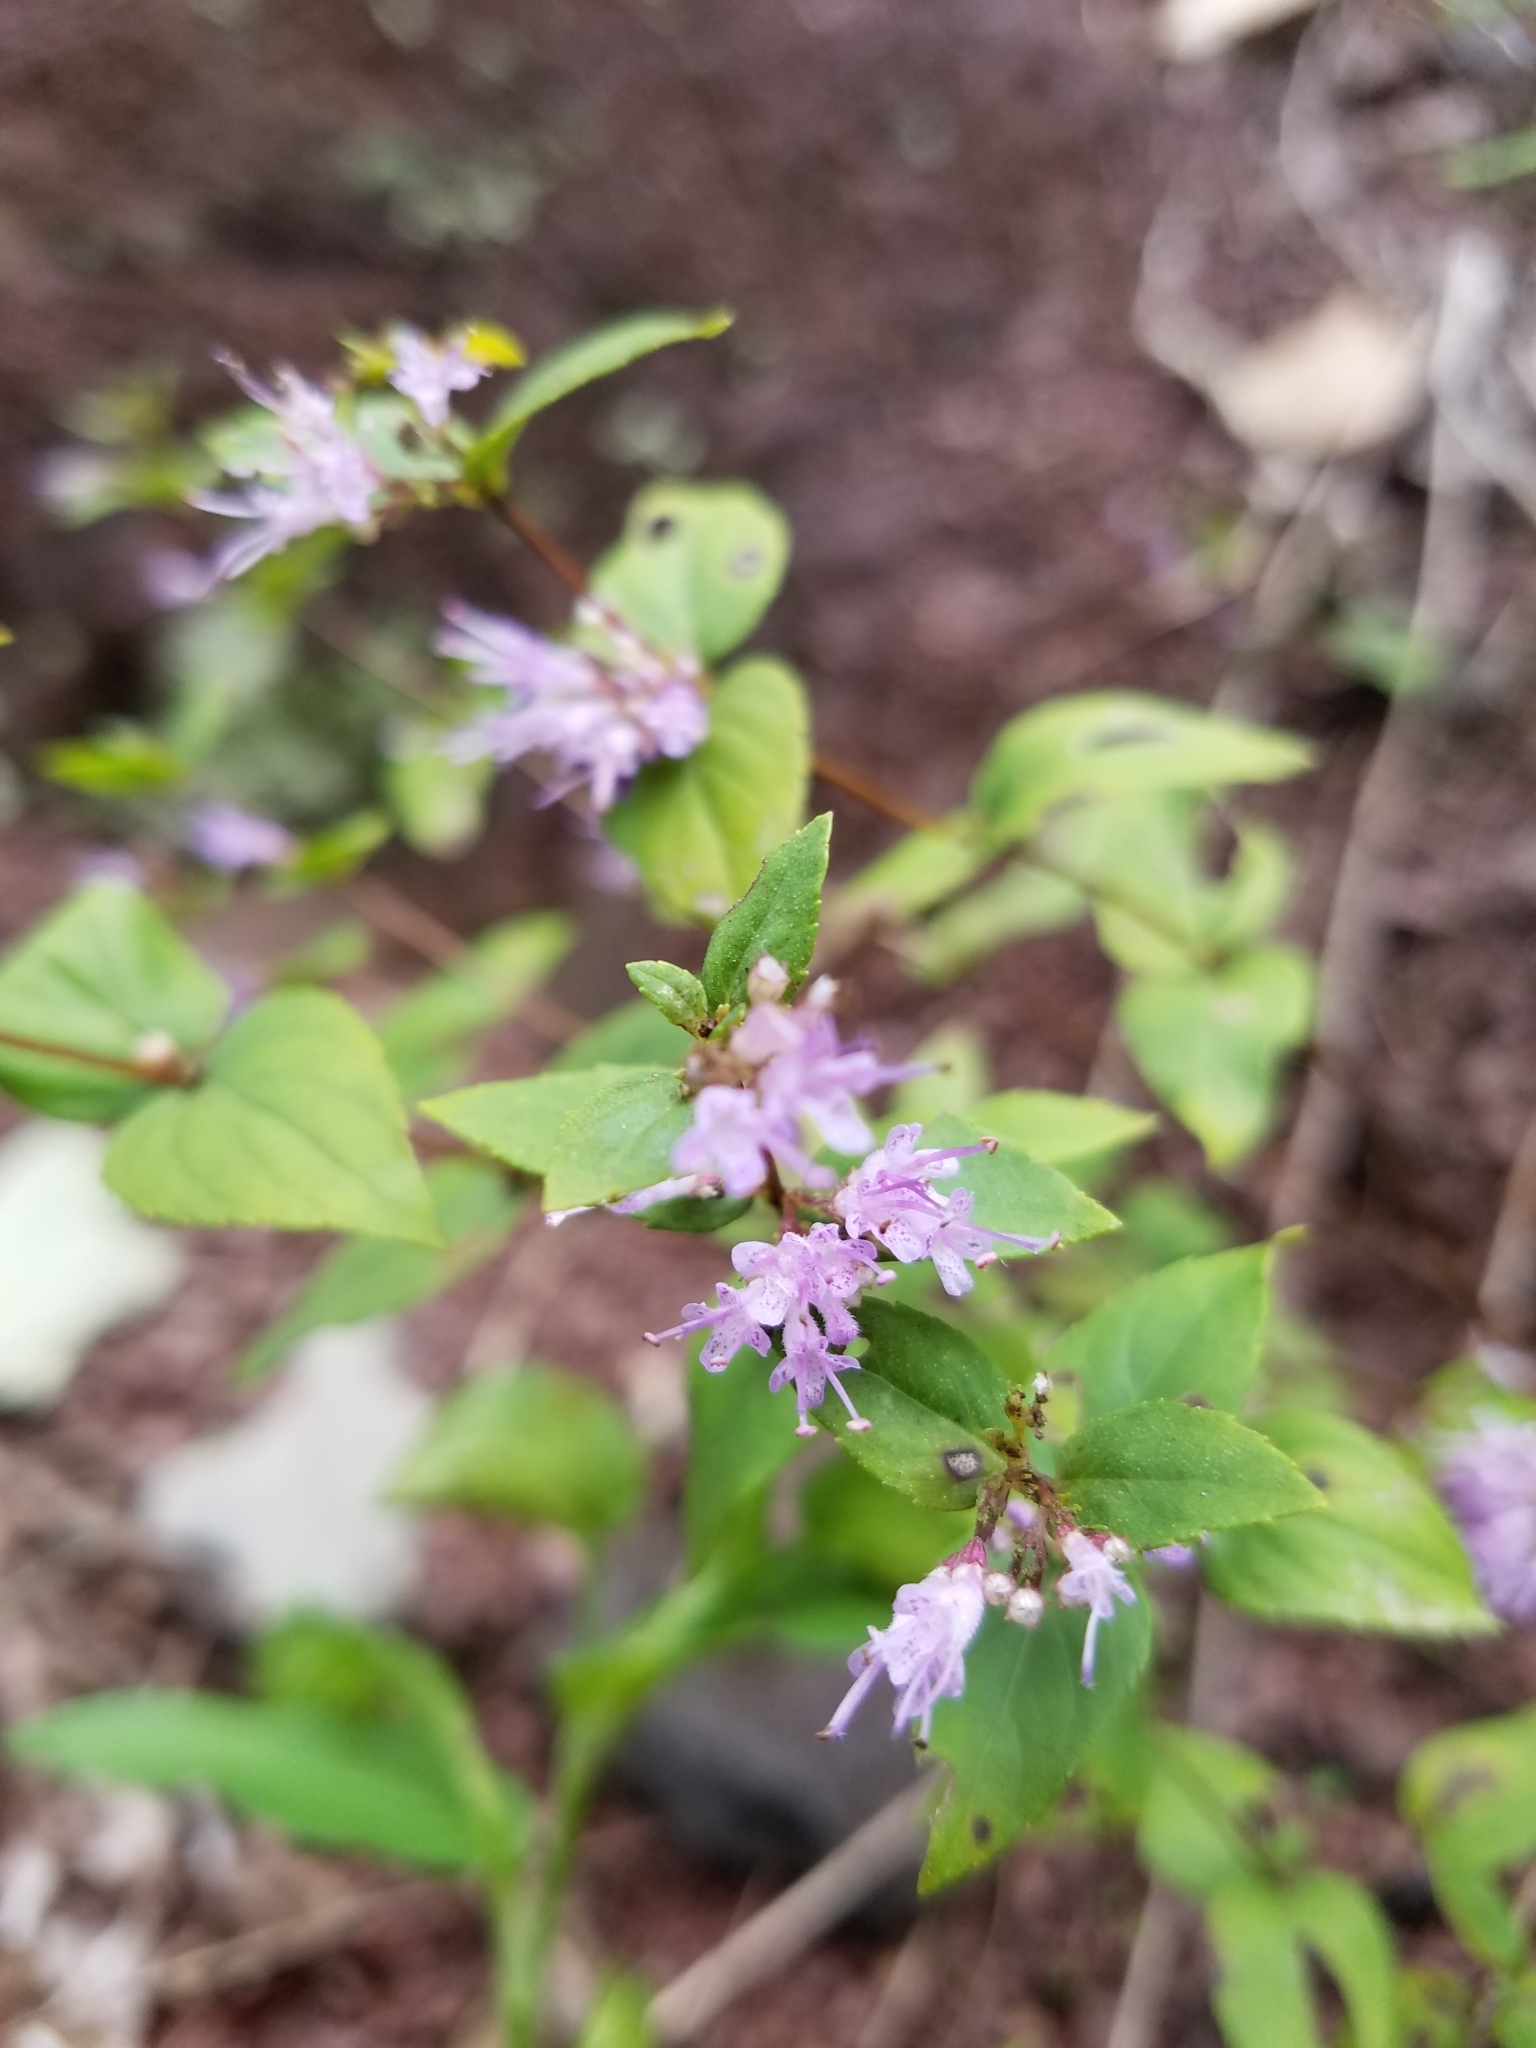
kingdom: Plantae
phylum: Tracheophyta
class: Magnoliopsida
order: Lamiales
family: Lamiaceae
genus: Cunila
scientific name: Cunila origanoides
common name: American dittany
